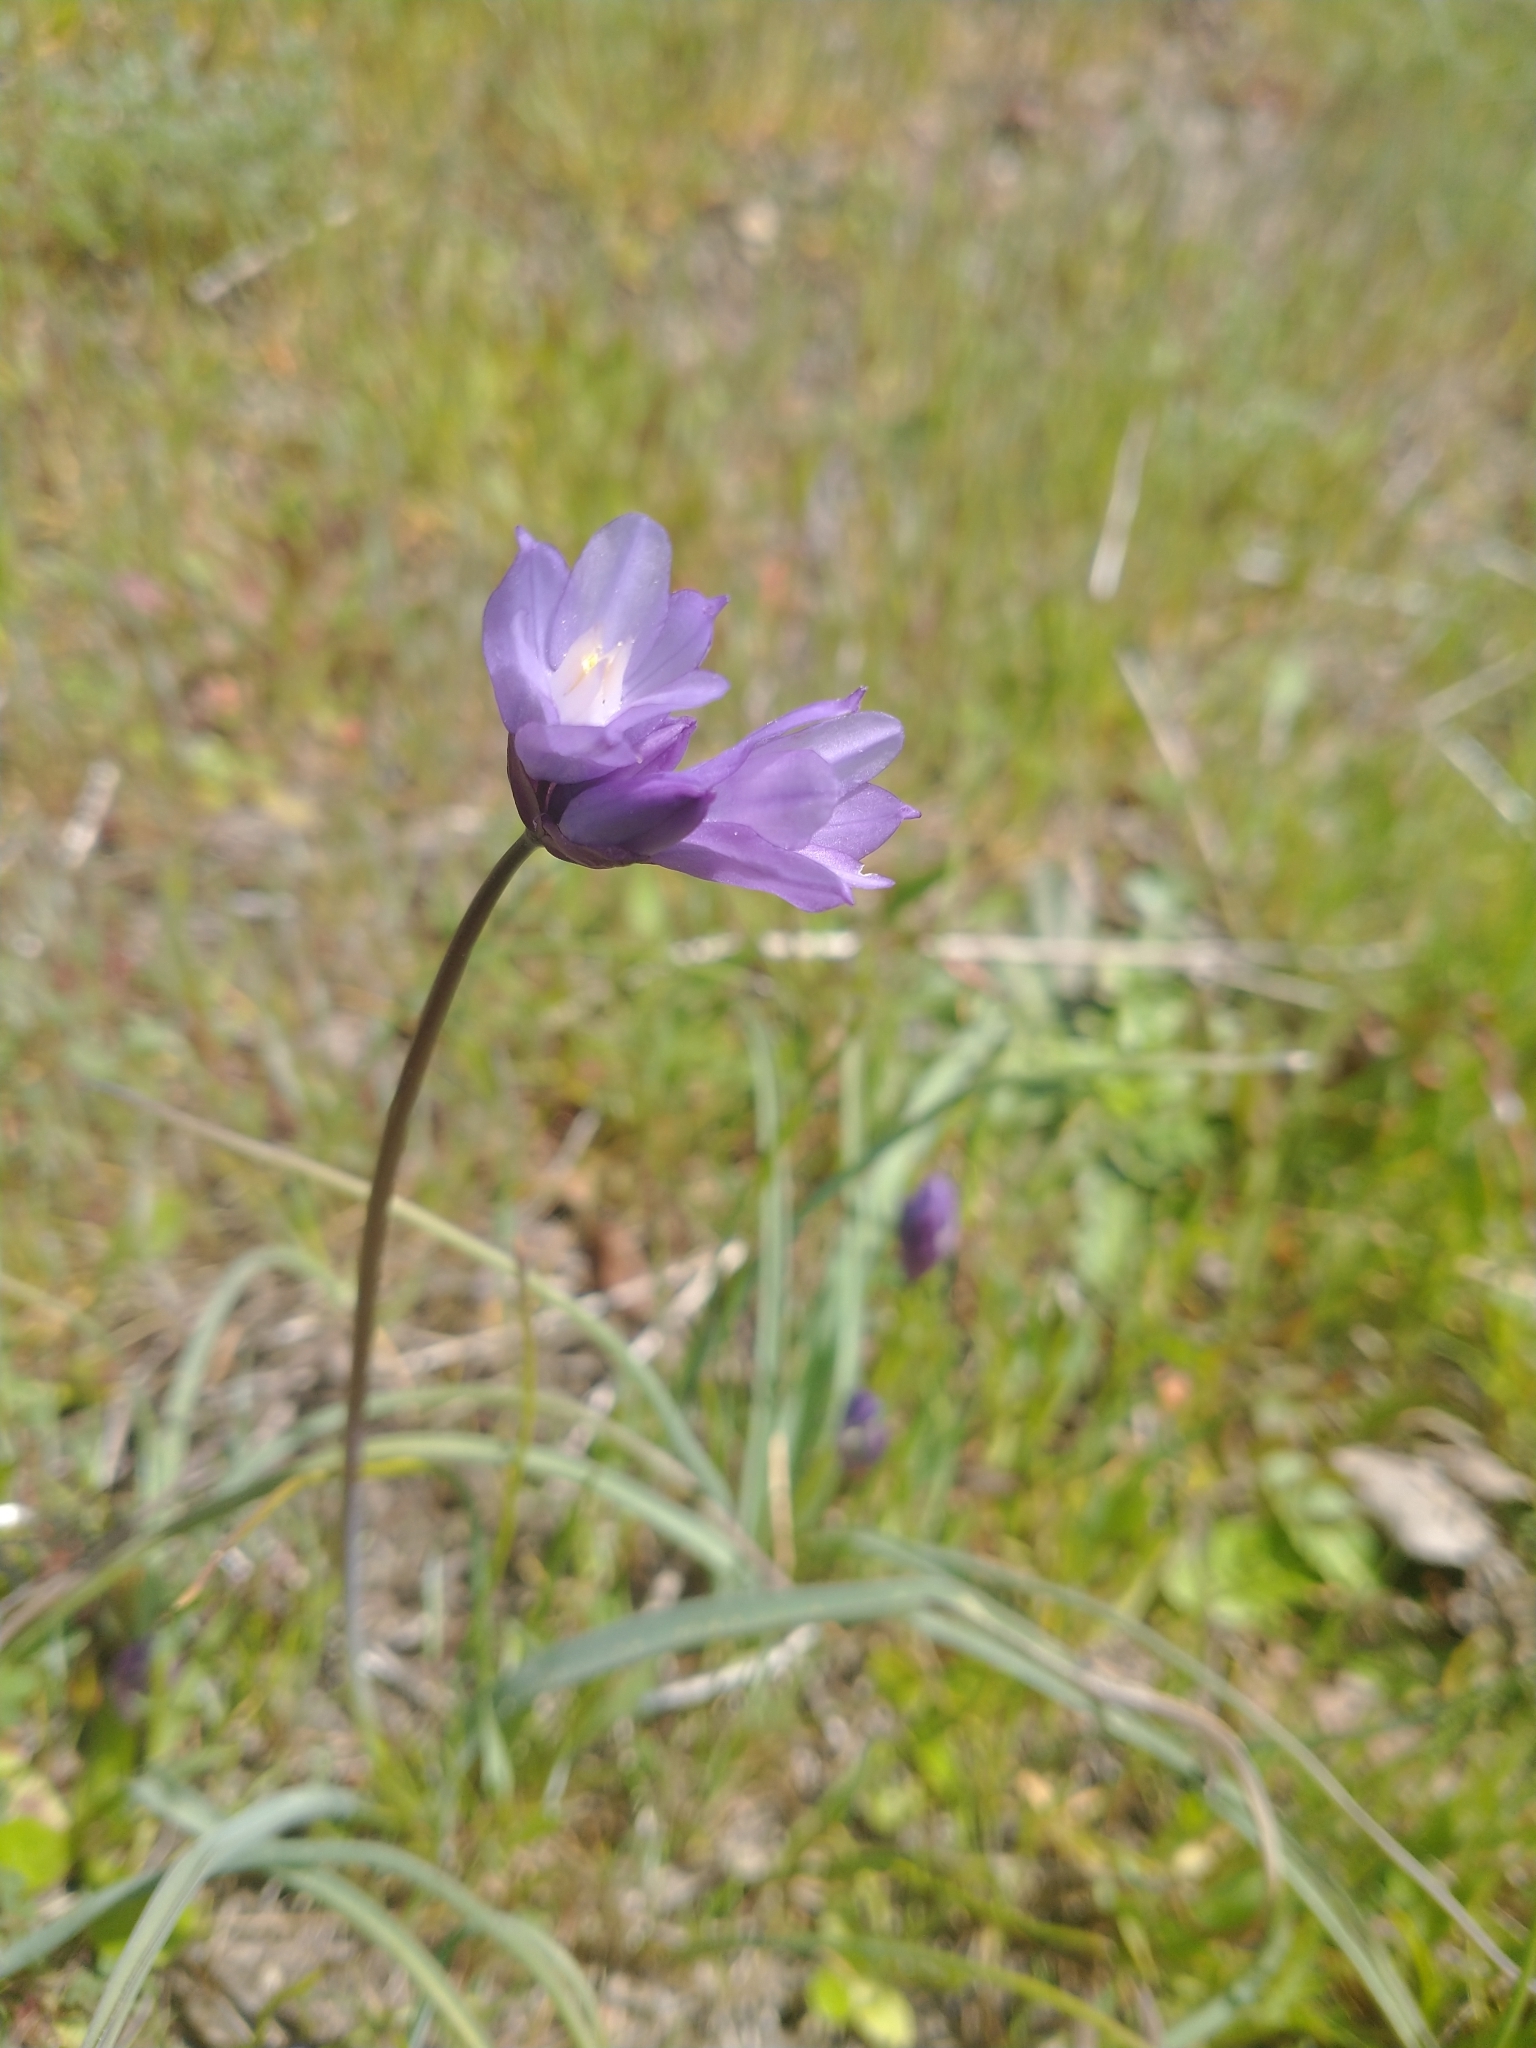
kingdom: Plantae
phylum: Tracheophyta
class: Liliopsida
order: Asparagales
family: Asparagaceae
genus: Dipterostemon
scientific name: Dipterostemon capitatus
